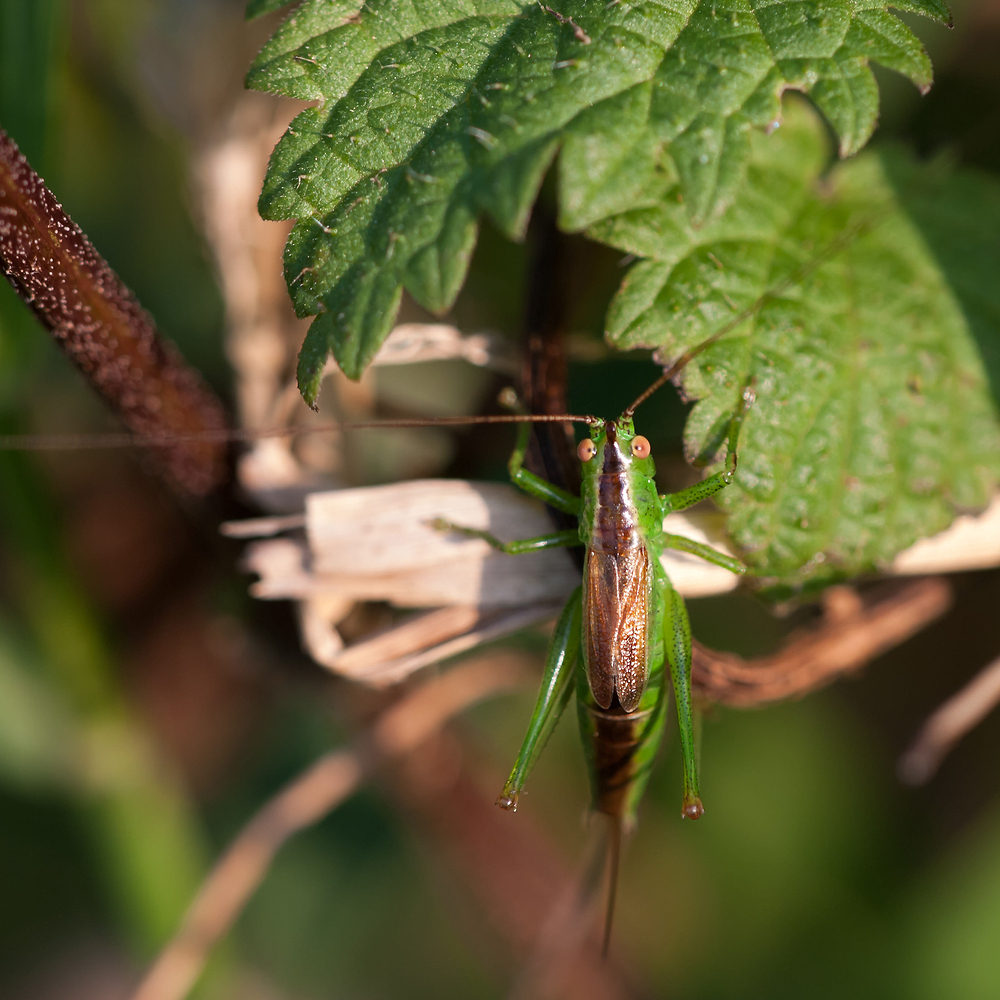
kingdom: Animalia
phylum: Arthropoda
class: Insecta
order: Orthoptera
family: Tettigoniidae
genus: Conocephalus
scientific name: Conocephalus dorsalis
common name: Short-winged conehead
